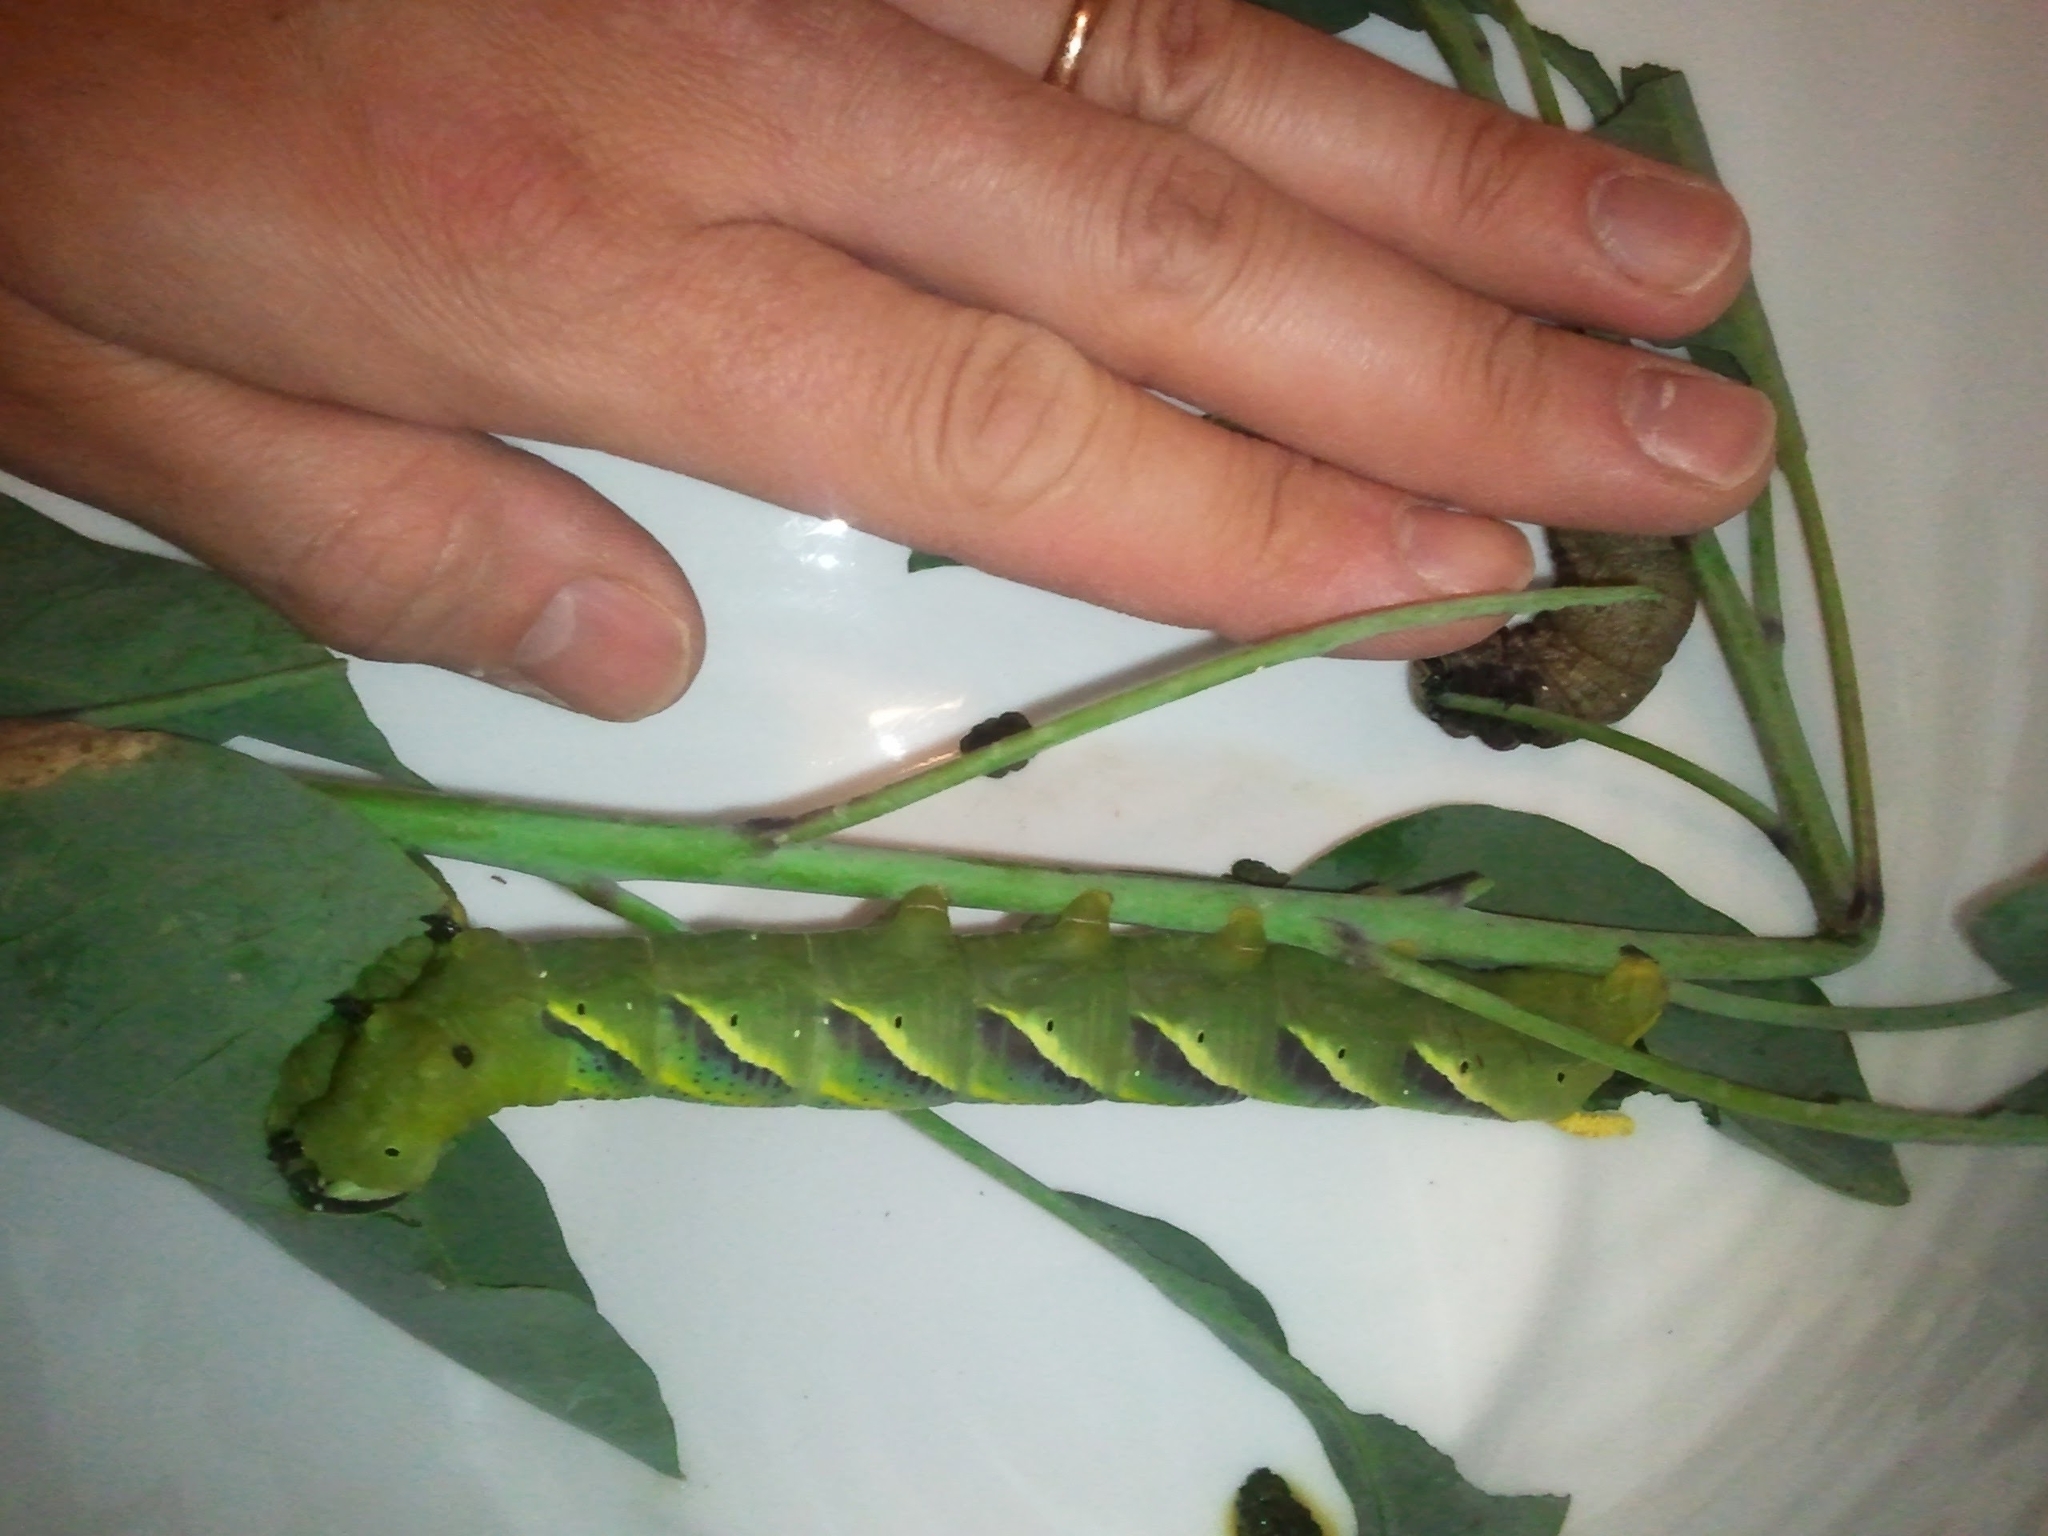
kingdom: Animalia
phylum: Arthropoda
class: Insecta
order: Lepidoptera
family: Sphingidae
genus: Acherontia
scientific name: Acherontia atropos
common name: Death's-head hawk moth
